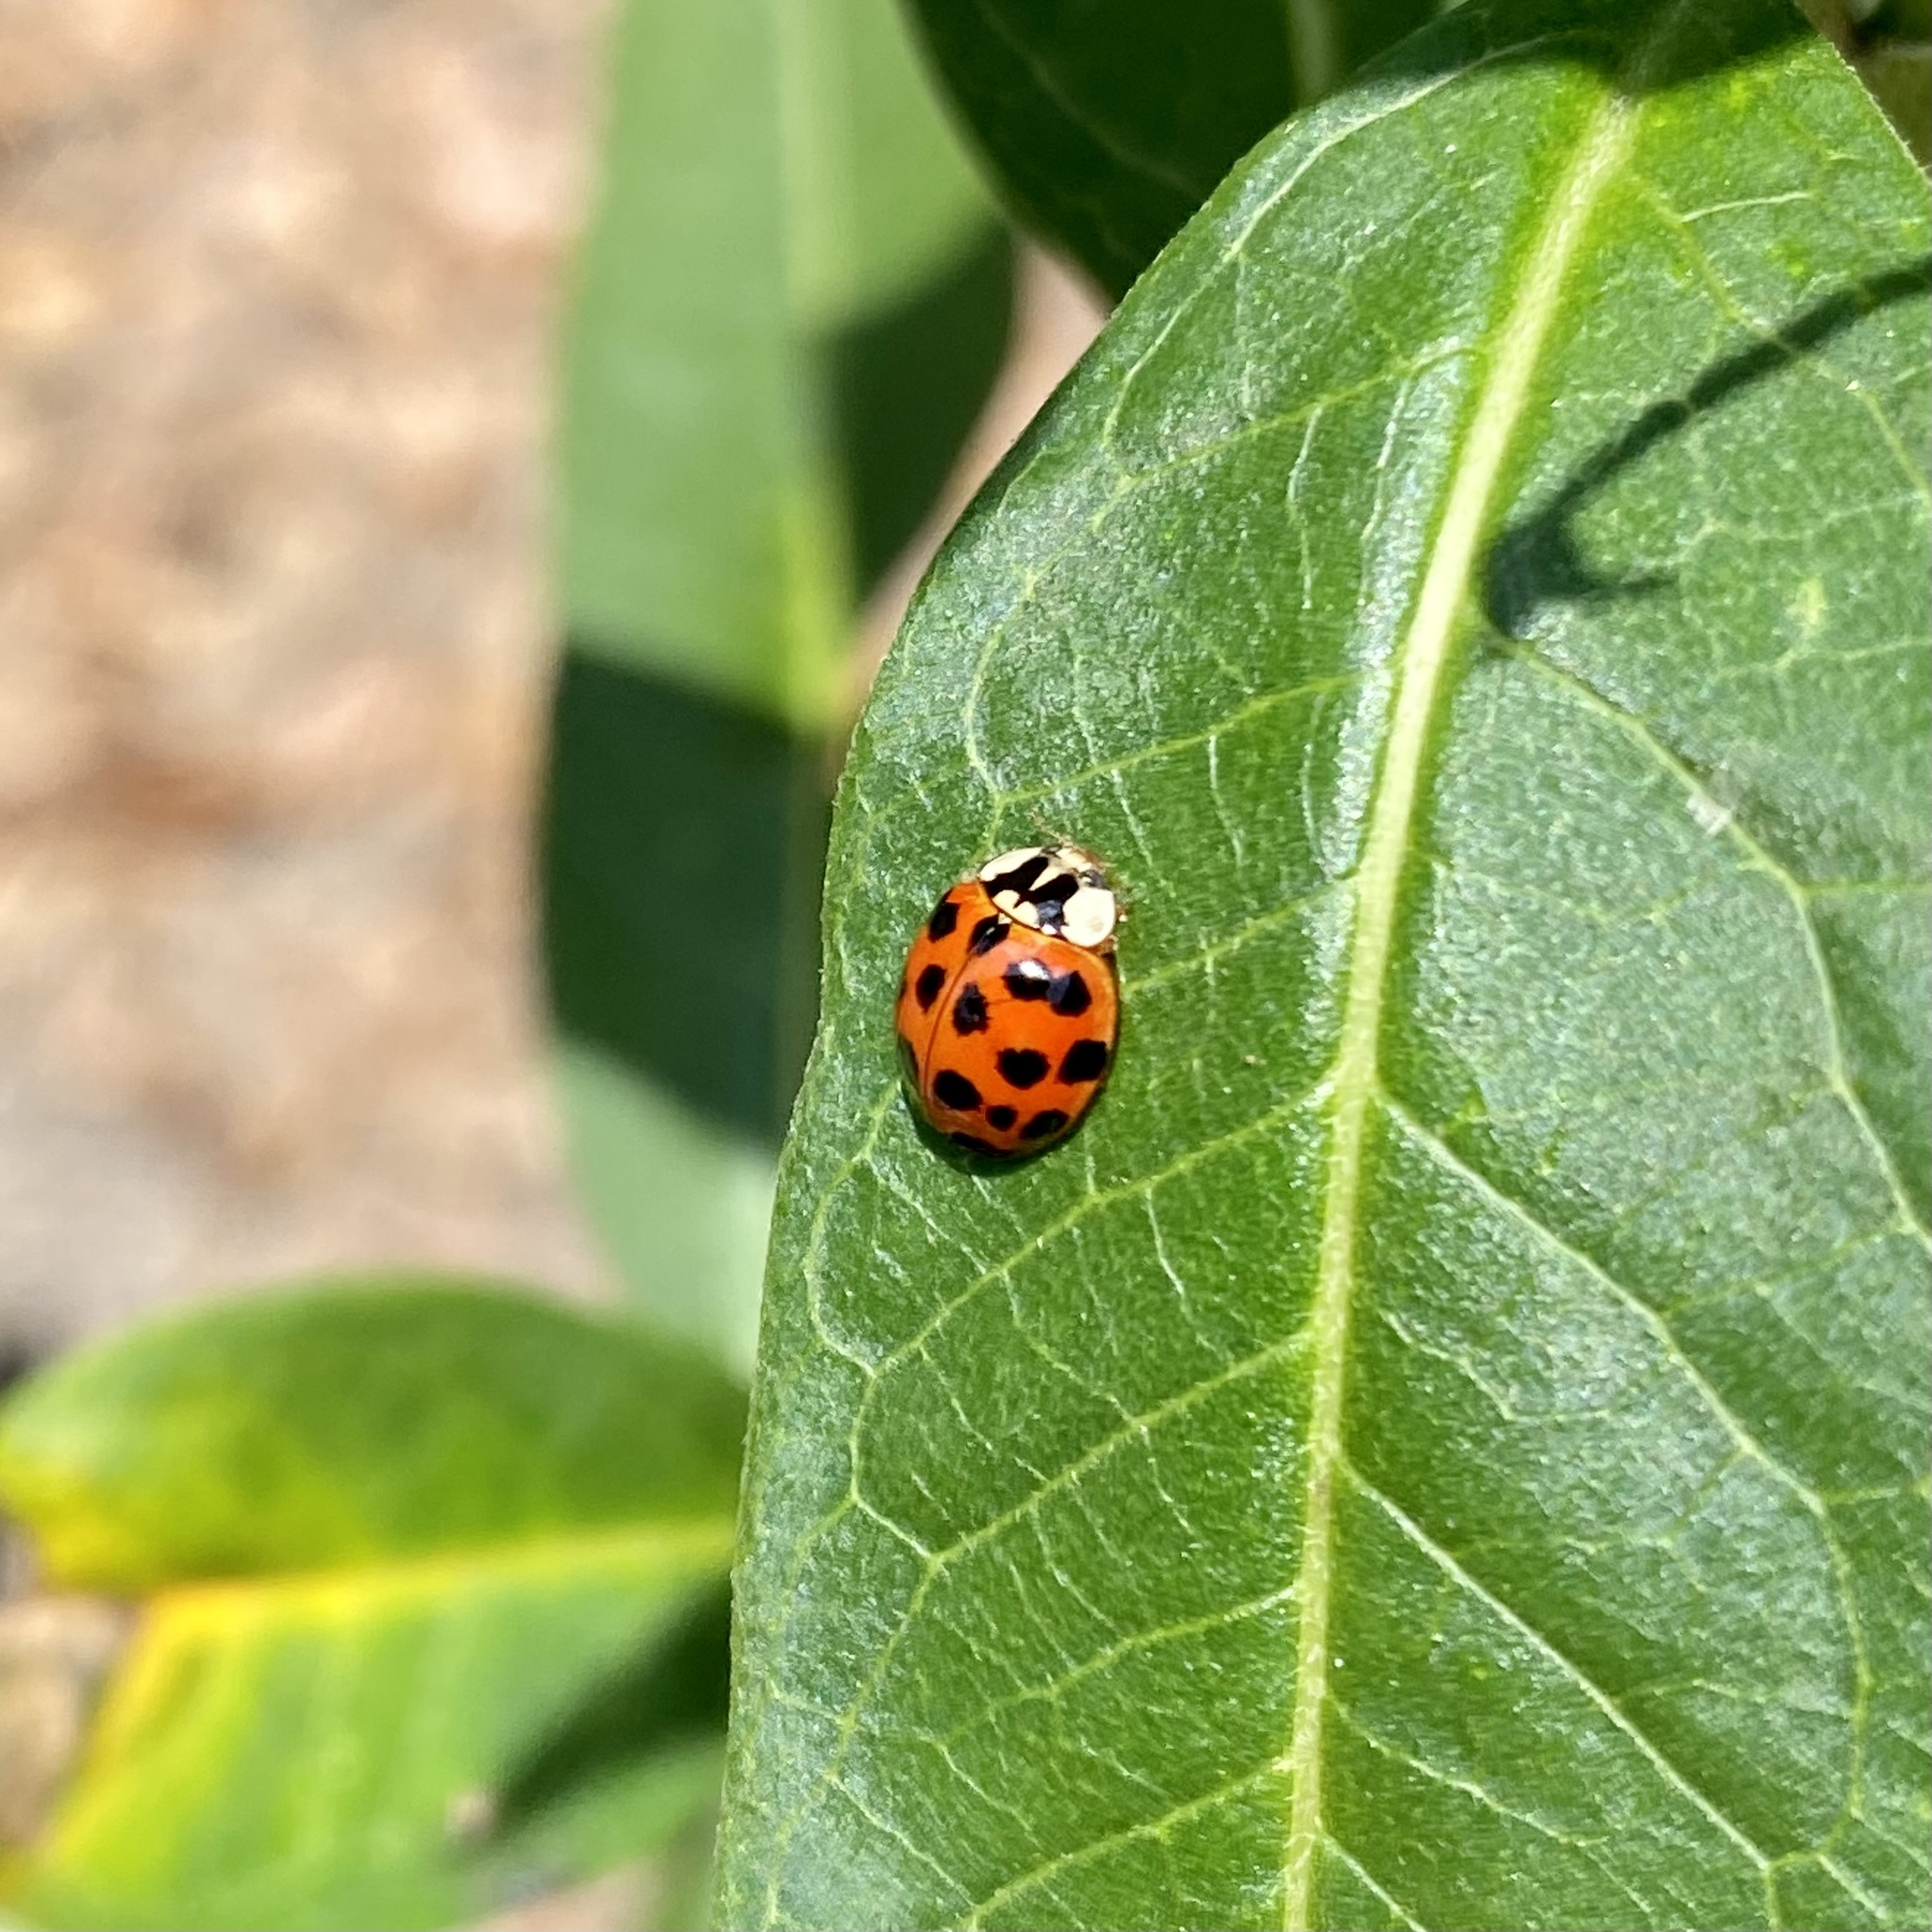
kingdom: Animalia
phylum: Arthropoda
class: Insecta
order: Coleoptera
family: Coccinellidae
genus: Harmonia
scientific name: Harmonia axyridis
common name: Harlequin ladybird
